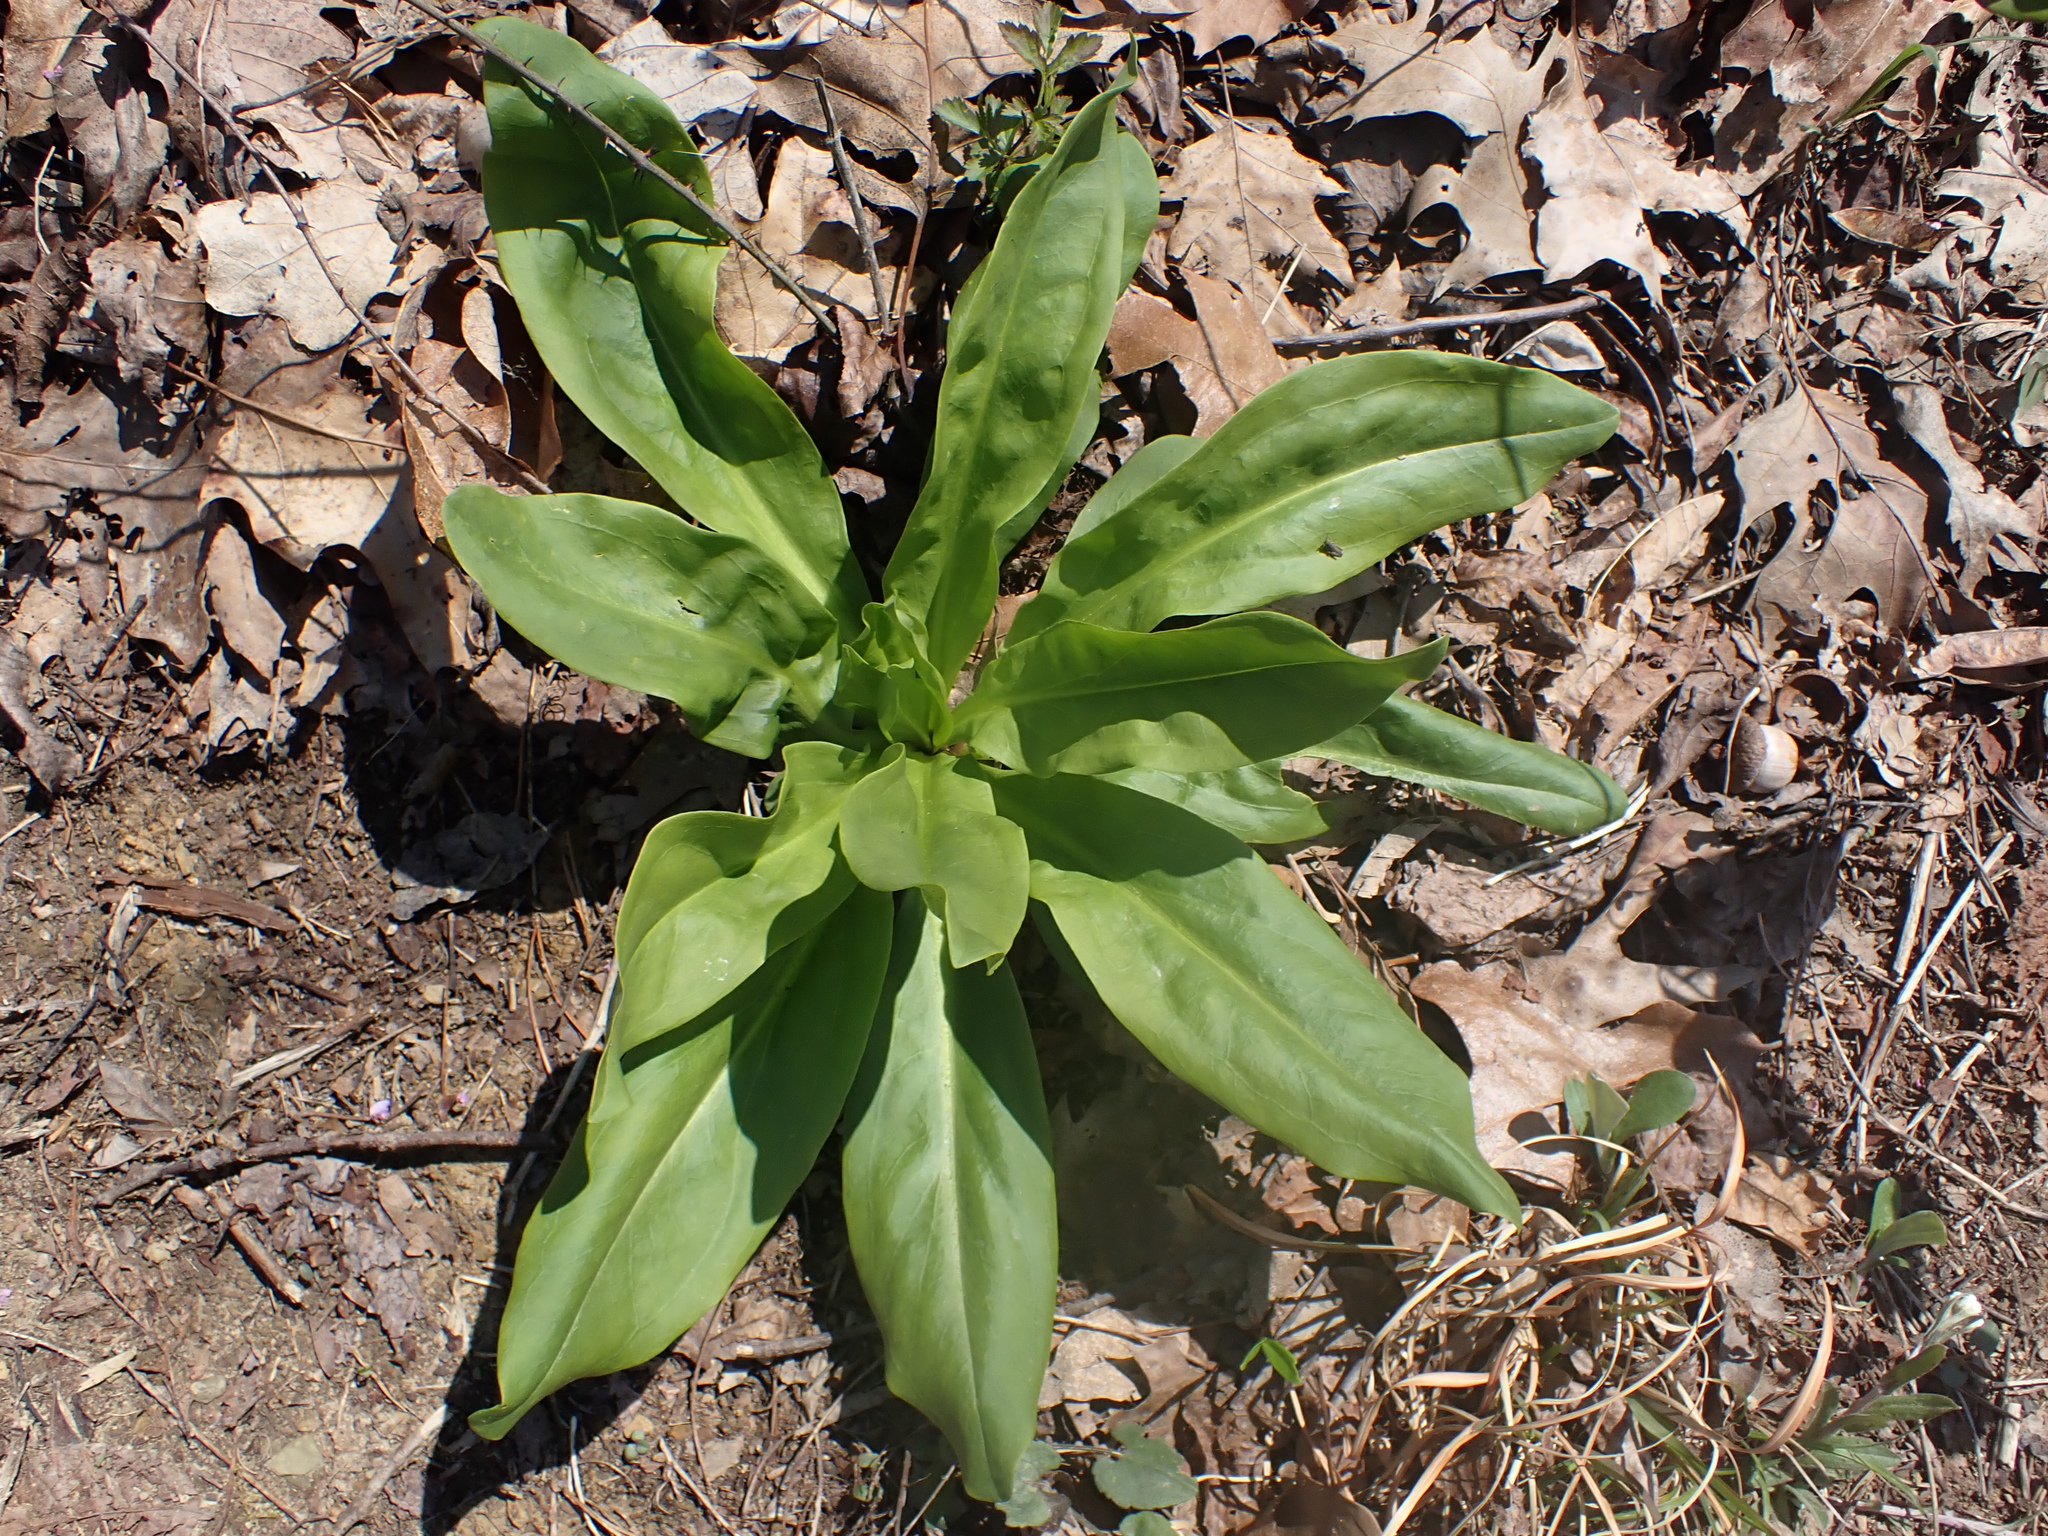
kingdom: Plantae
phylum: Tracheophyta
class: Magnoliopsida
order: Gentianales
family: Gentianaceae
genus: Frasera
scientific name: Frasera caroliniensis
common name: American columbo
